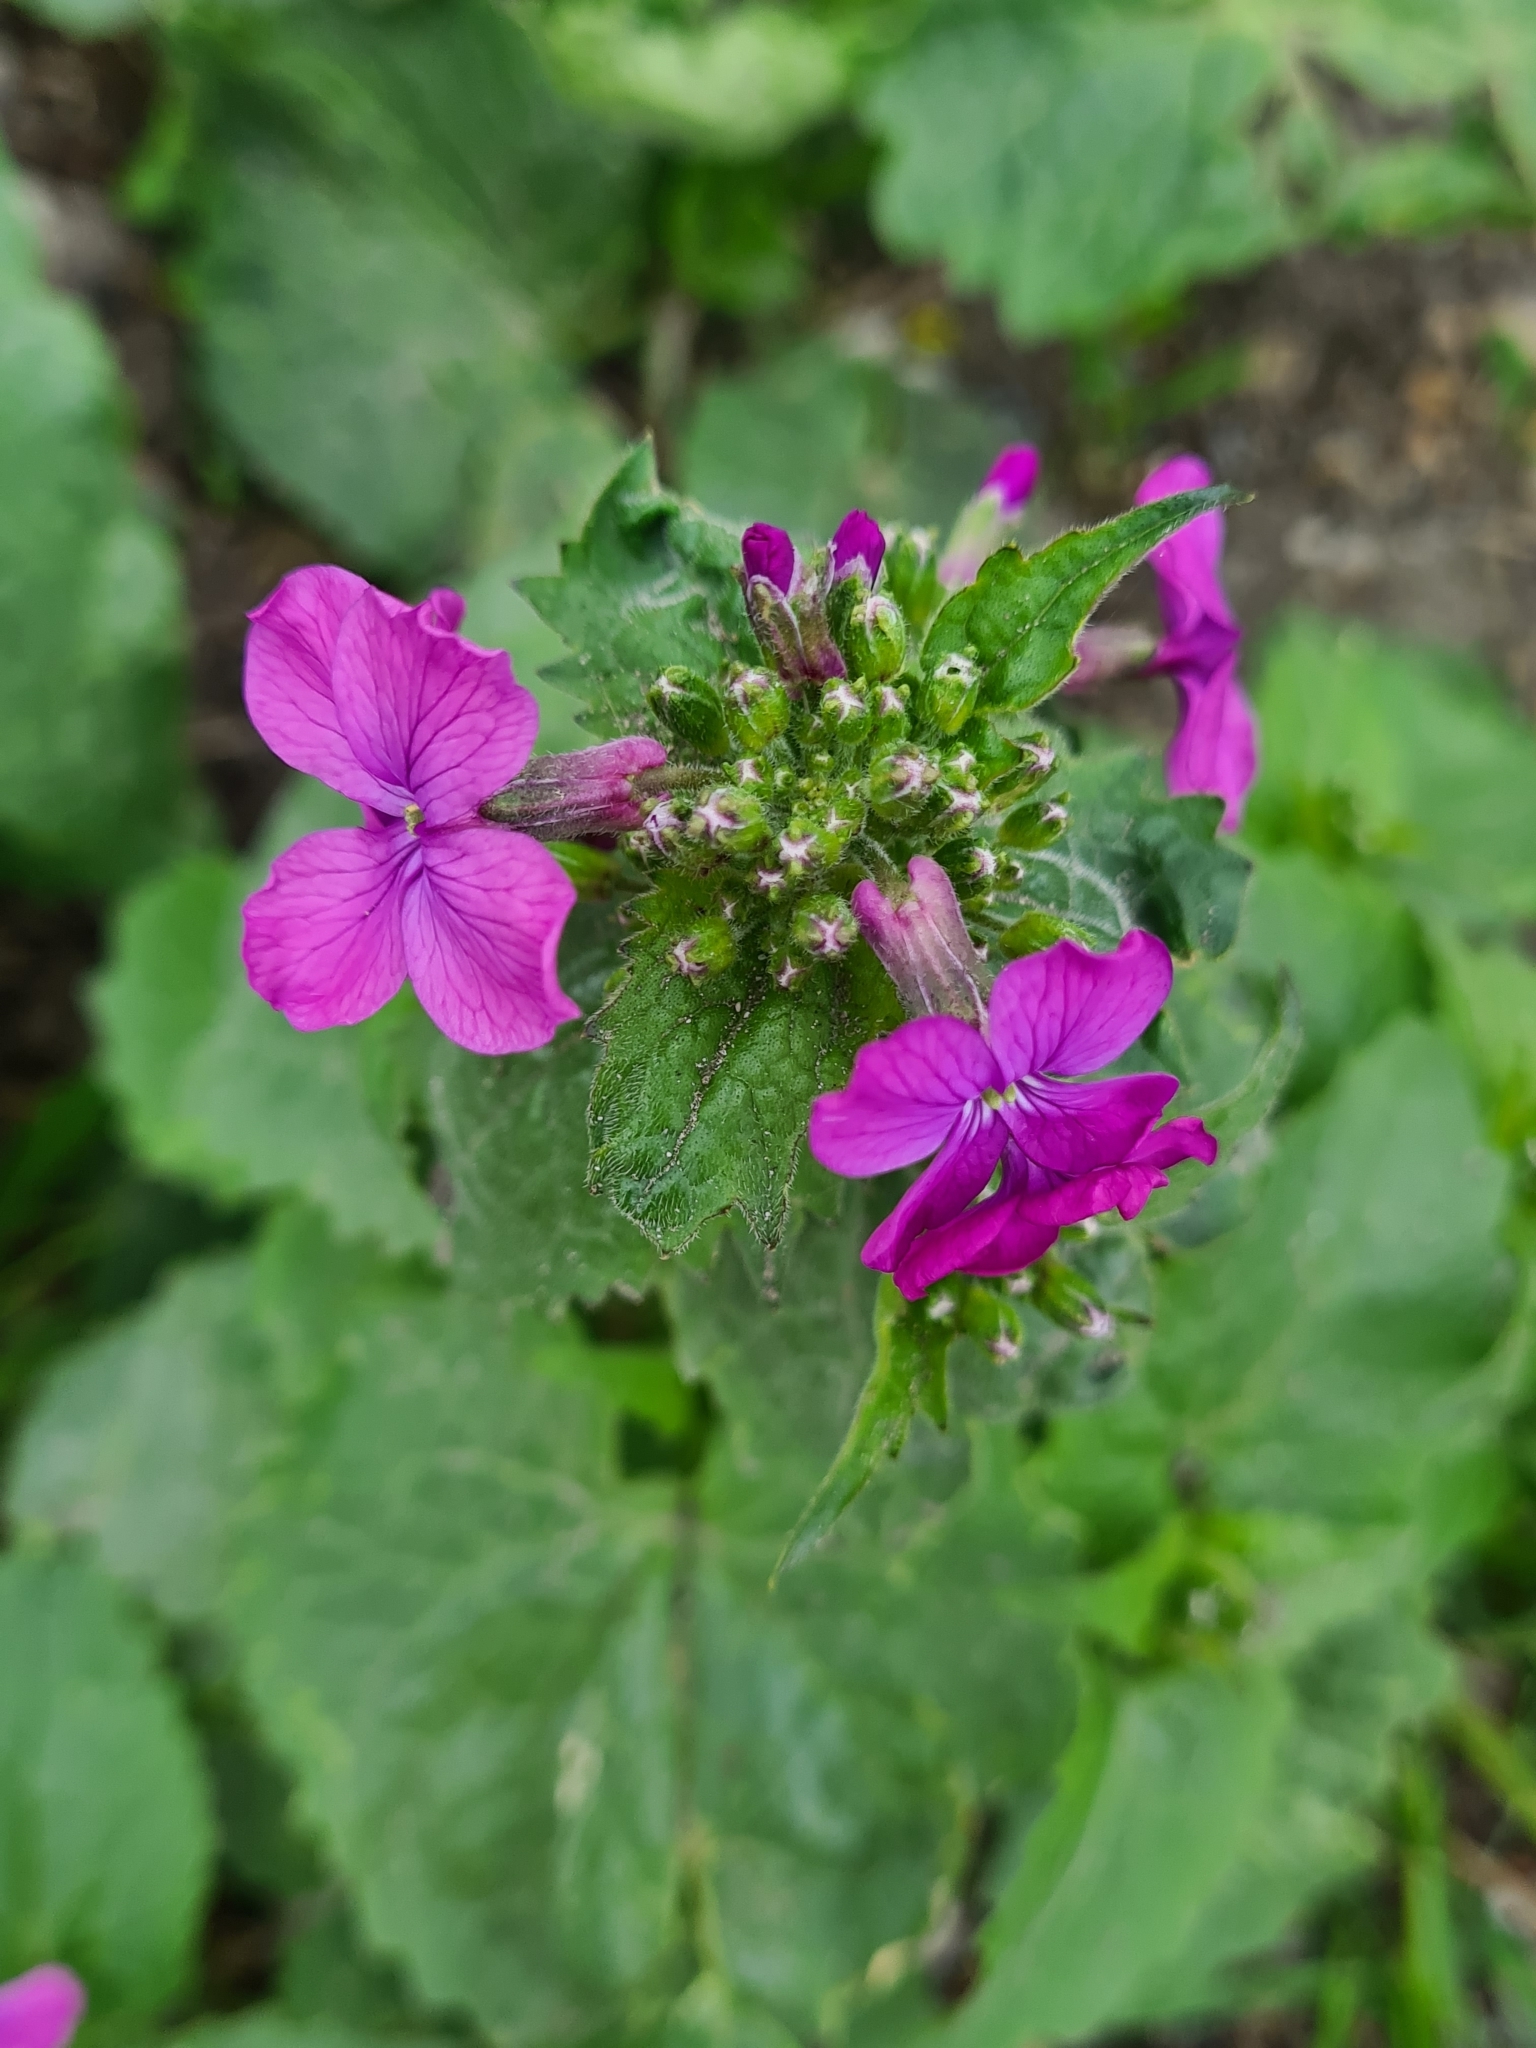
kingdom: Plantae
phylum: Tracheophyta
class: Magnoliopsida
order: Brassicales
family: Brassicaceae
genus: Lunaria
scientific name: Lunaria annua
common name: Honesty
